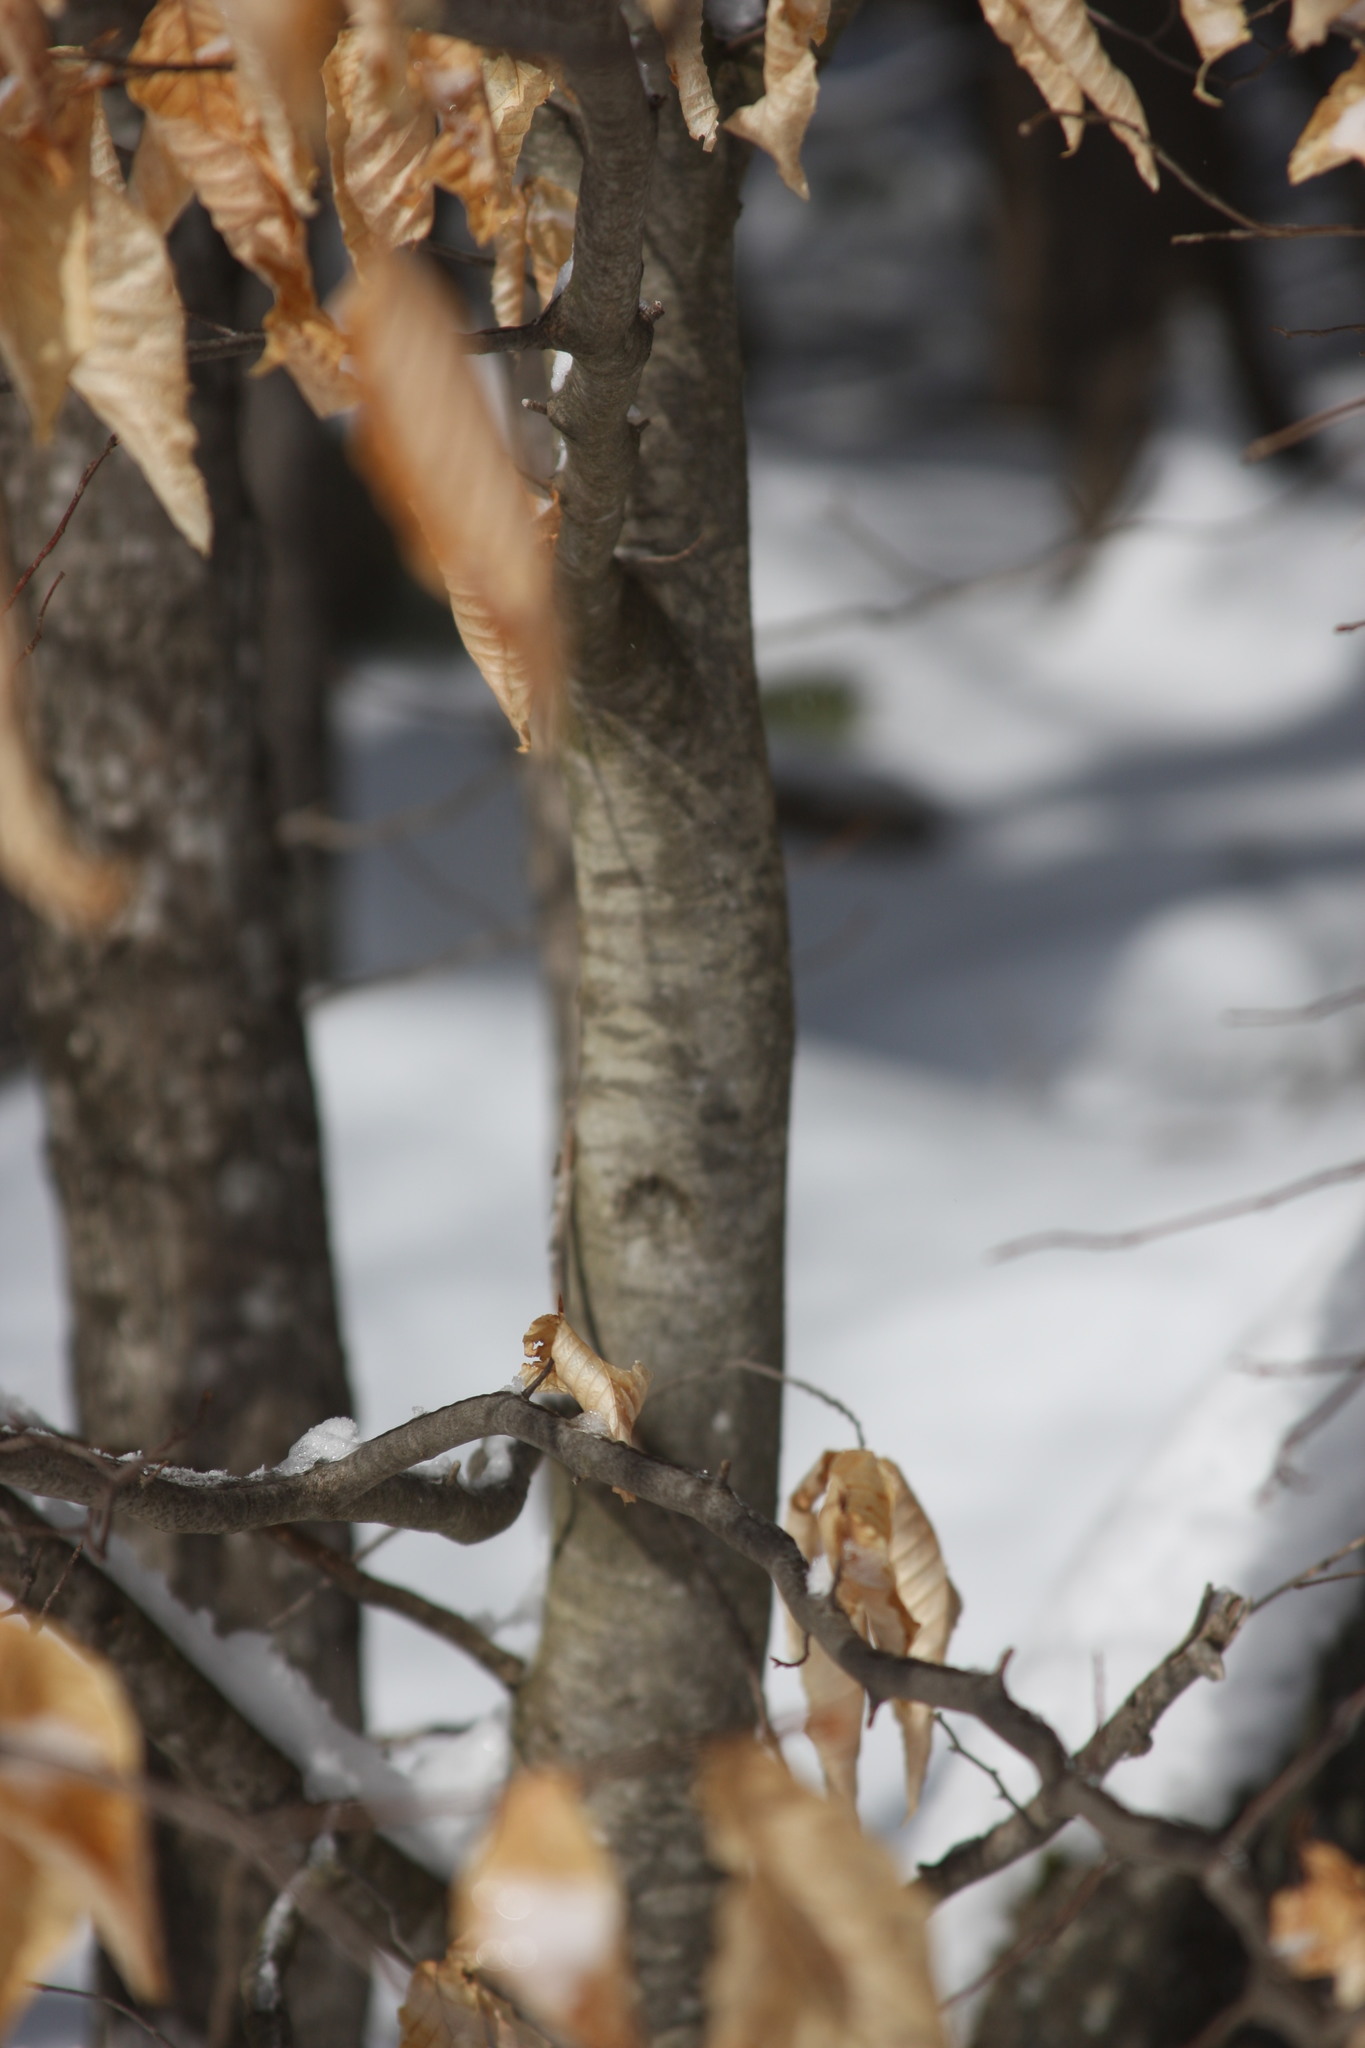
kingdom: Plantae
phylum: Tracheophyta
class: Magnoliopsida
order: Fagales
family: Fagaceae
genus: Fagus
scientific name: Fagus grandifolia
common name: American beech
